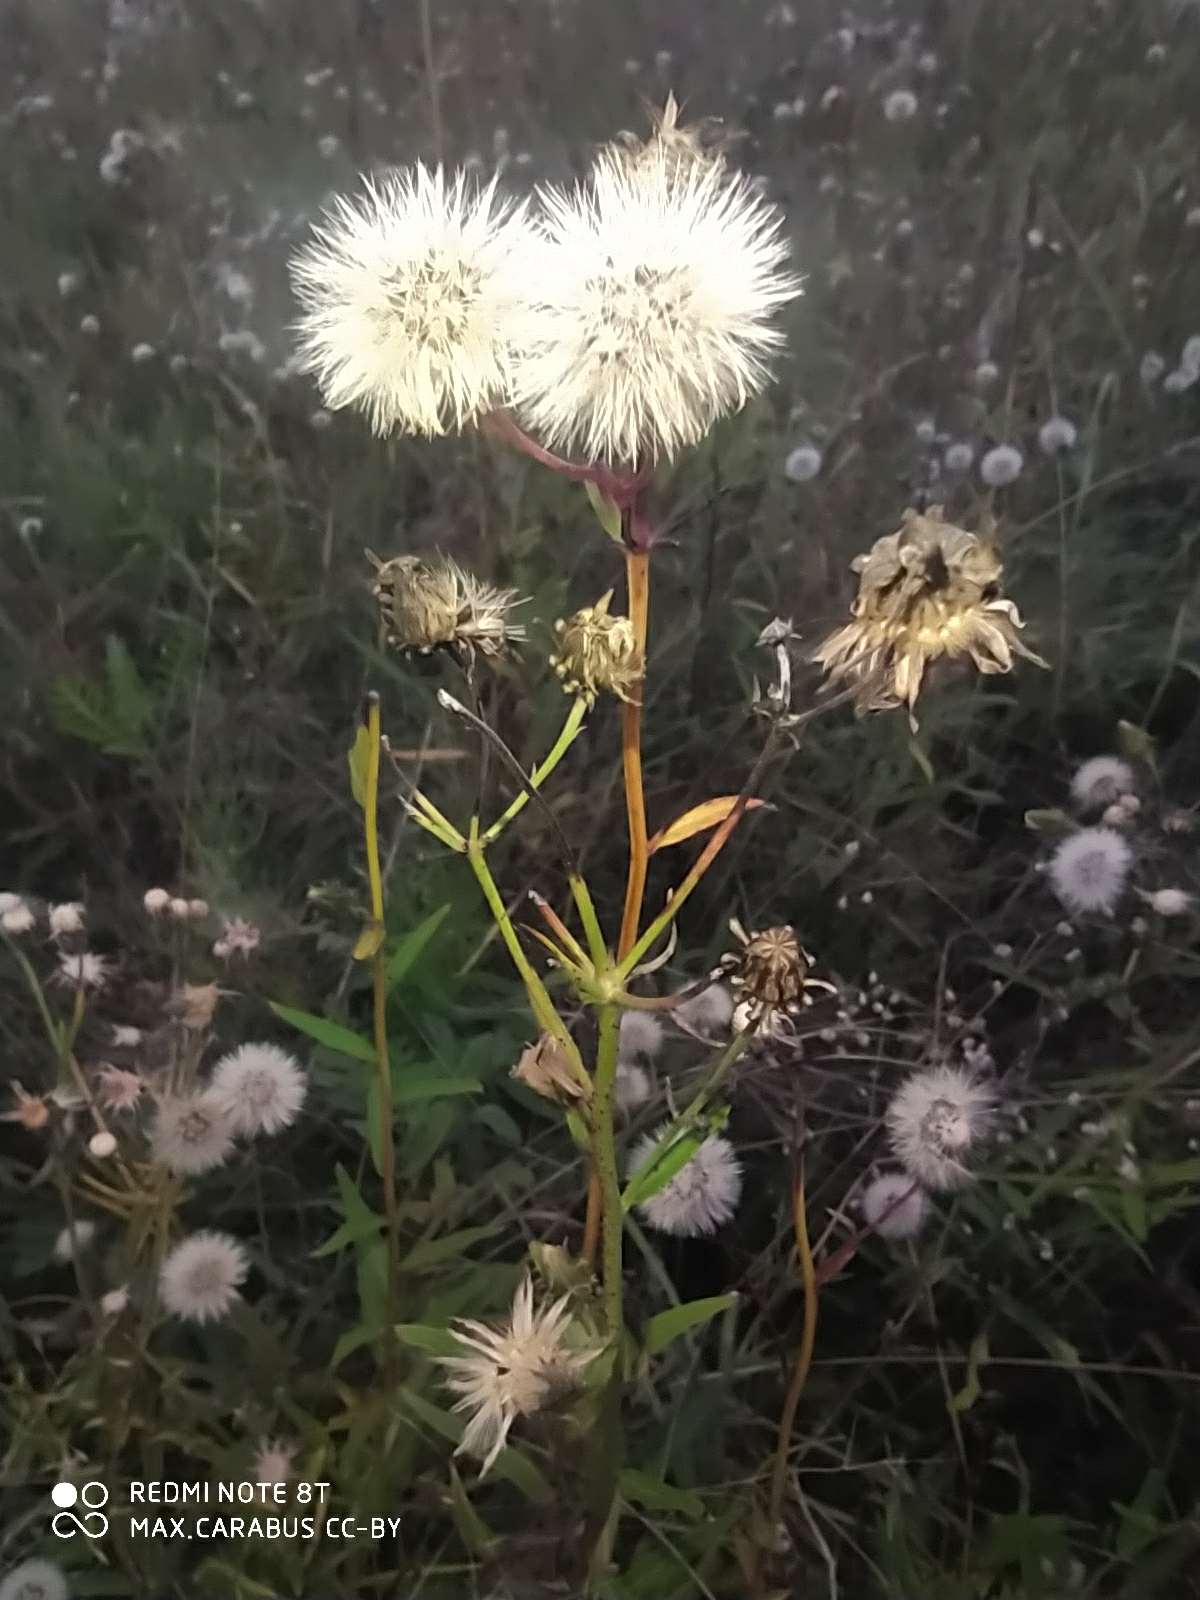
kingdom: Plantae
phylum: Tracheophyta
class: Magnoliopsida
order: Asterales
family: Asteraceae
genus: Hieracium
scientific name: Hieracium umbellatum
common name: Northern hawkweed
